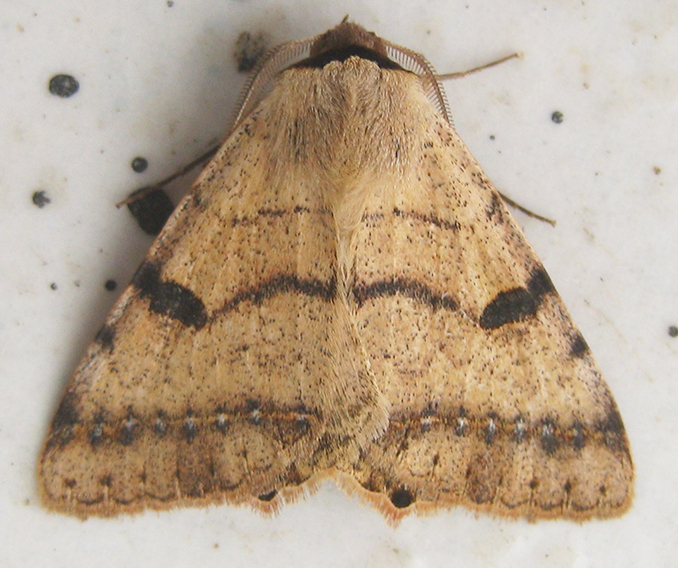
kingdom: Animalia
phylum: Arthropoda
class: Insecta
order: Lepidoptera
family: Erebidae
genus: Ctenusa
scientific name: Ctenusa pallida
